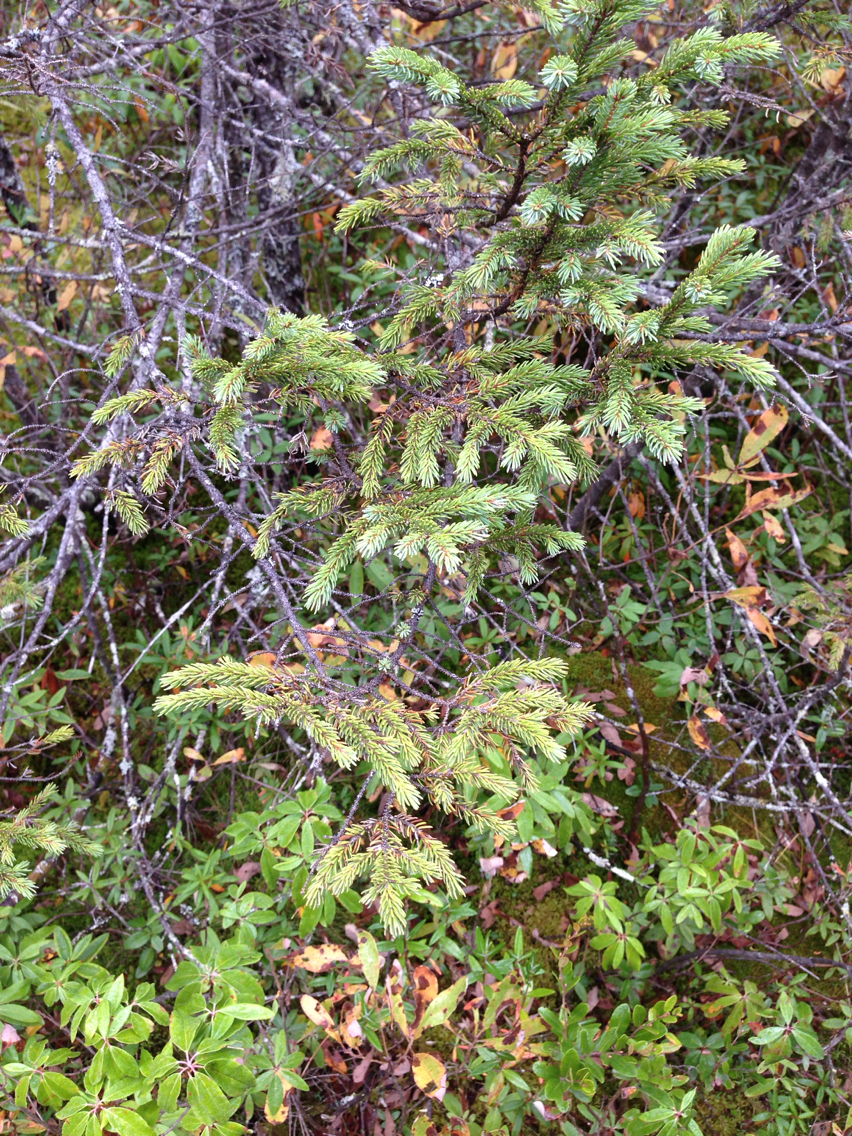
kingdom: Plantae
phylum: Tracheophyta
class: Pinopsida
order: Pinales
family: Pinaceae
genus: Picea
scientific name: Picea mariana
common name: Black spruce
